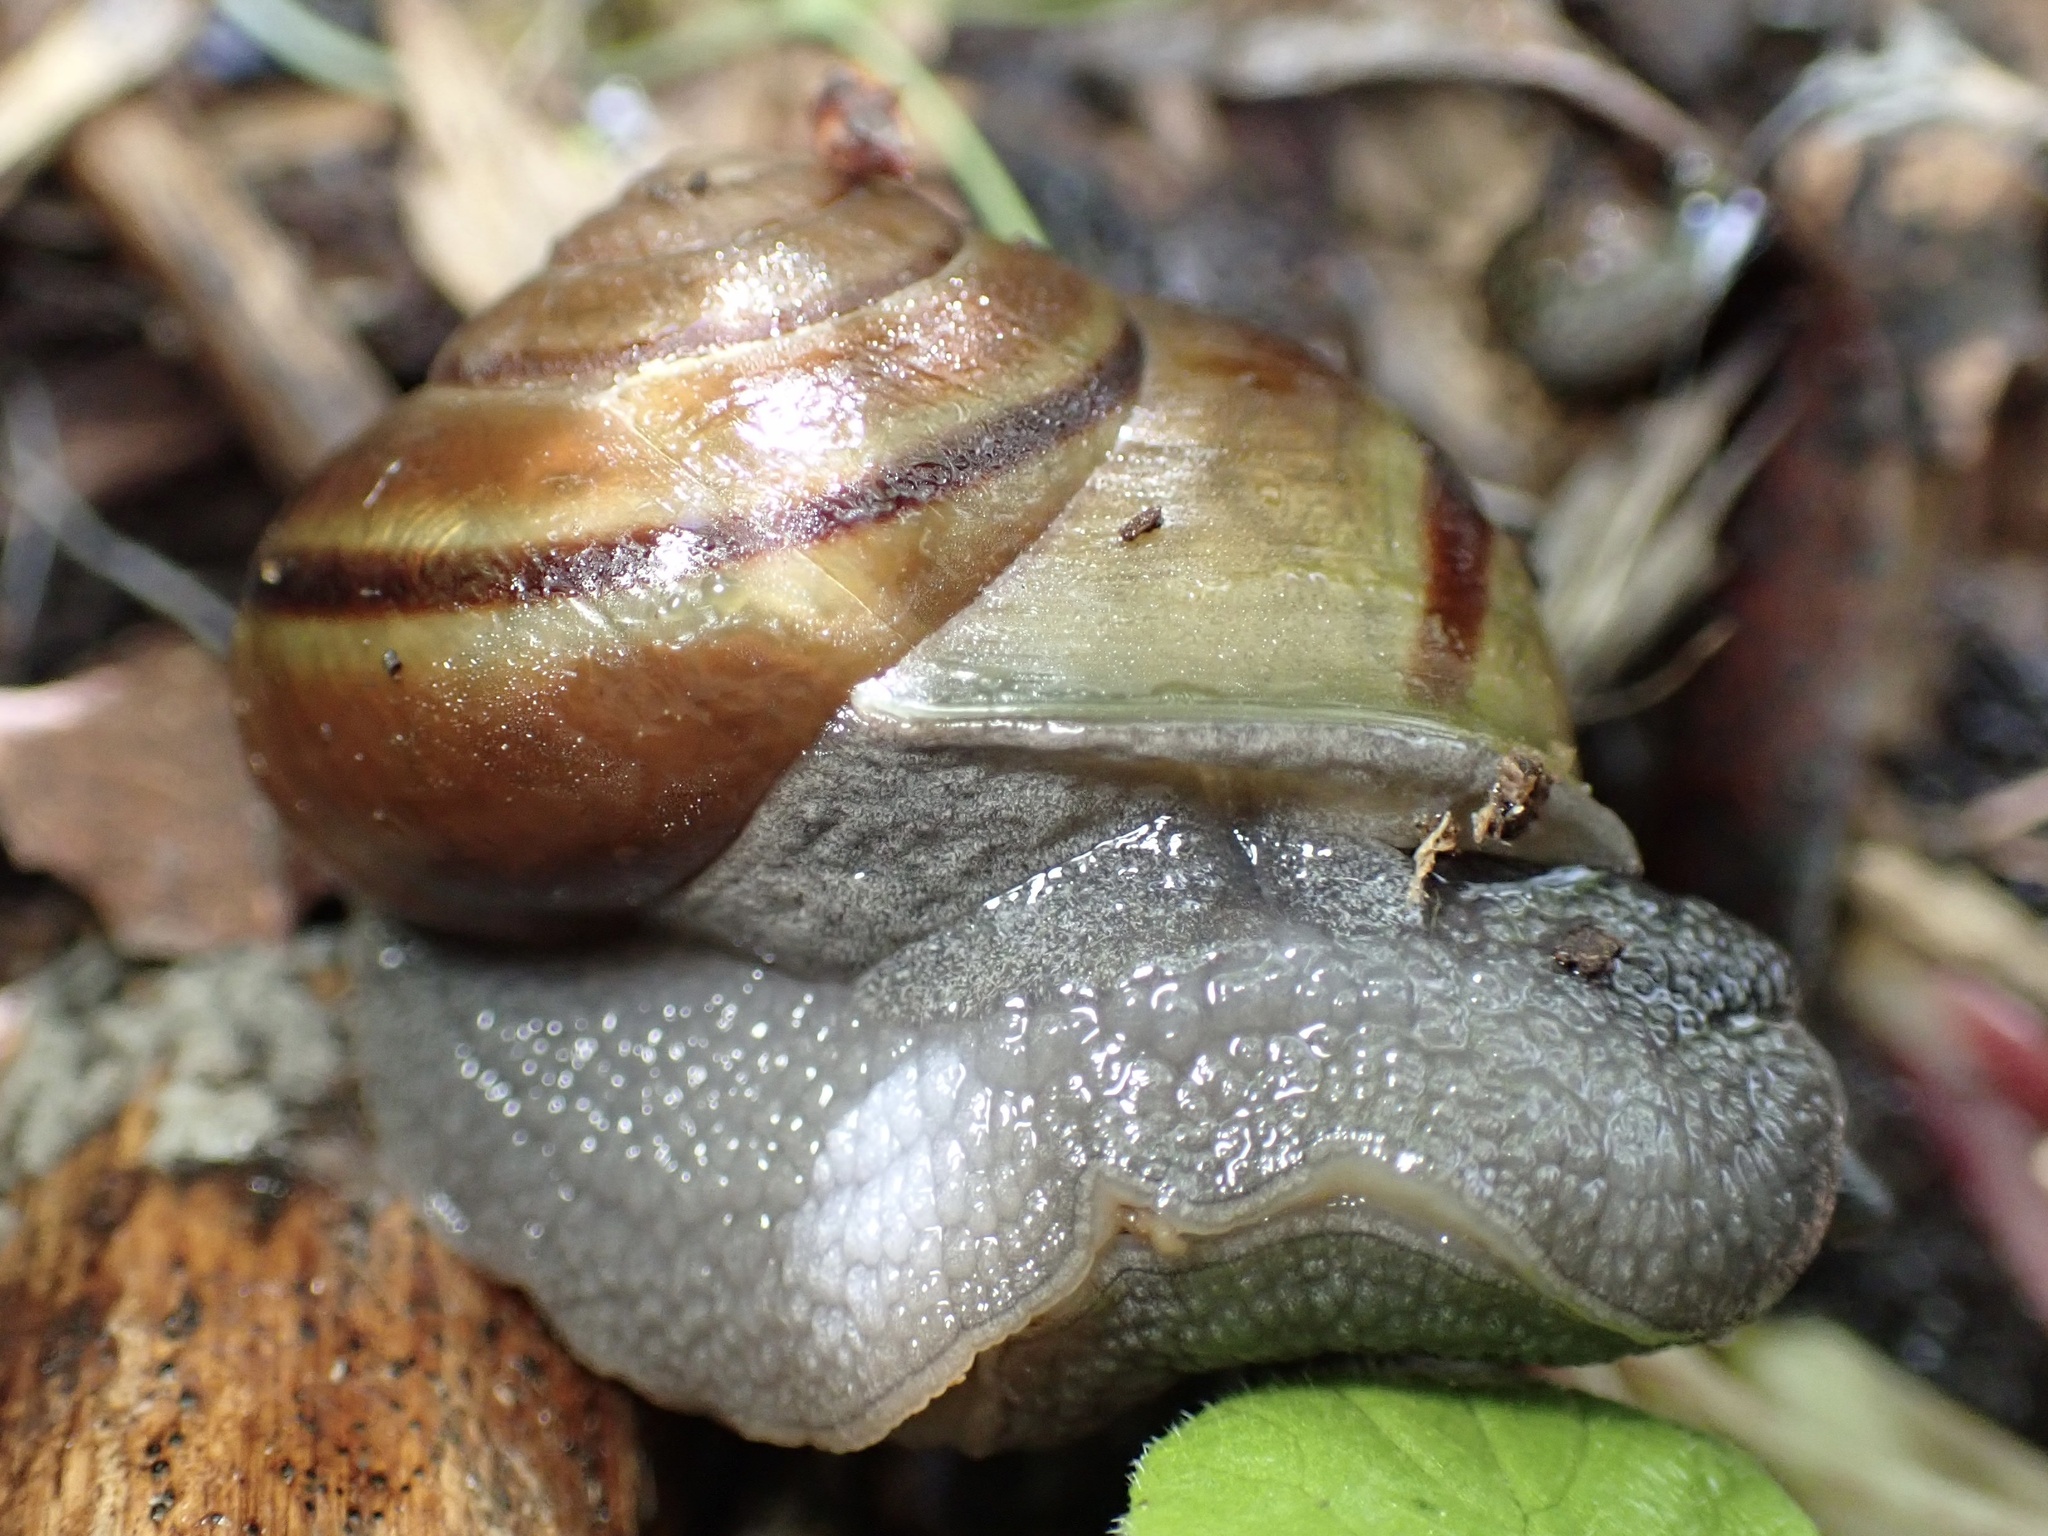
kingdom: Animalia
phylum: Mollusca
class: Gastropoda
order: Stylommatophora
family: Xanthonychidae
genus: Helminthoglypta
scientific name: Helminthoglypta tudiculata
